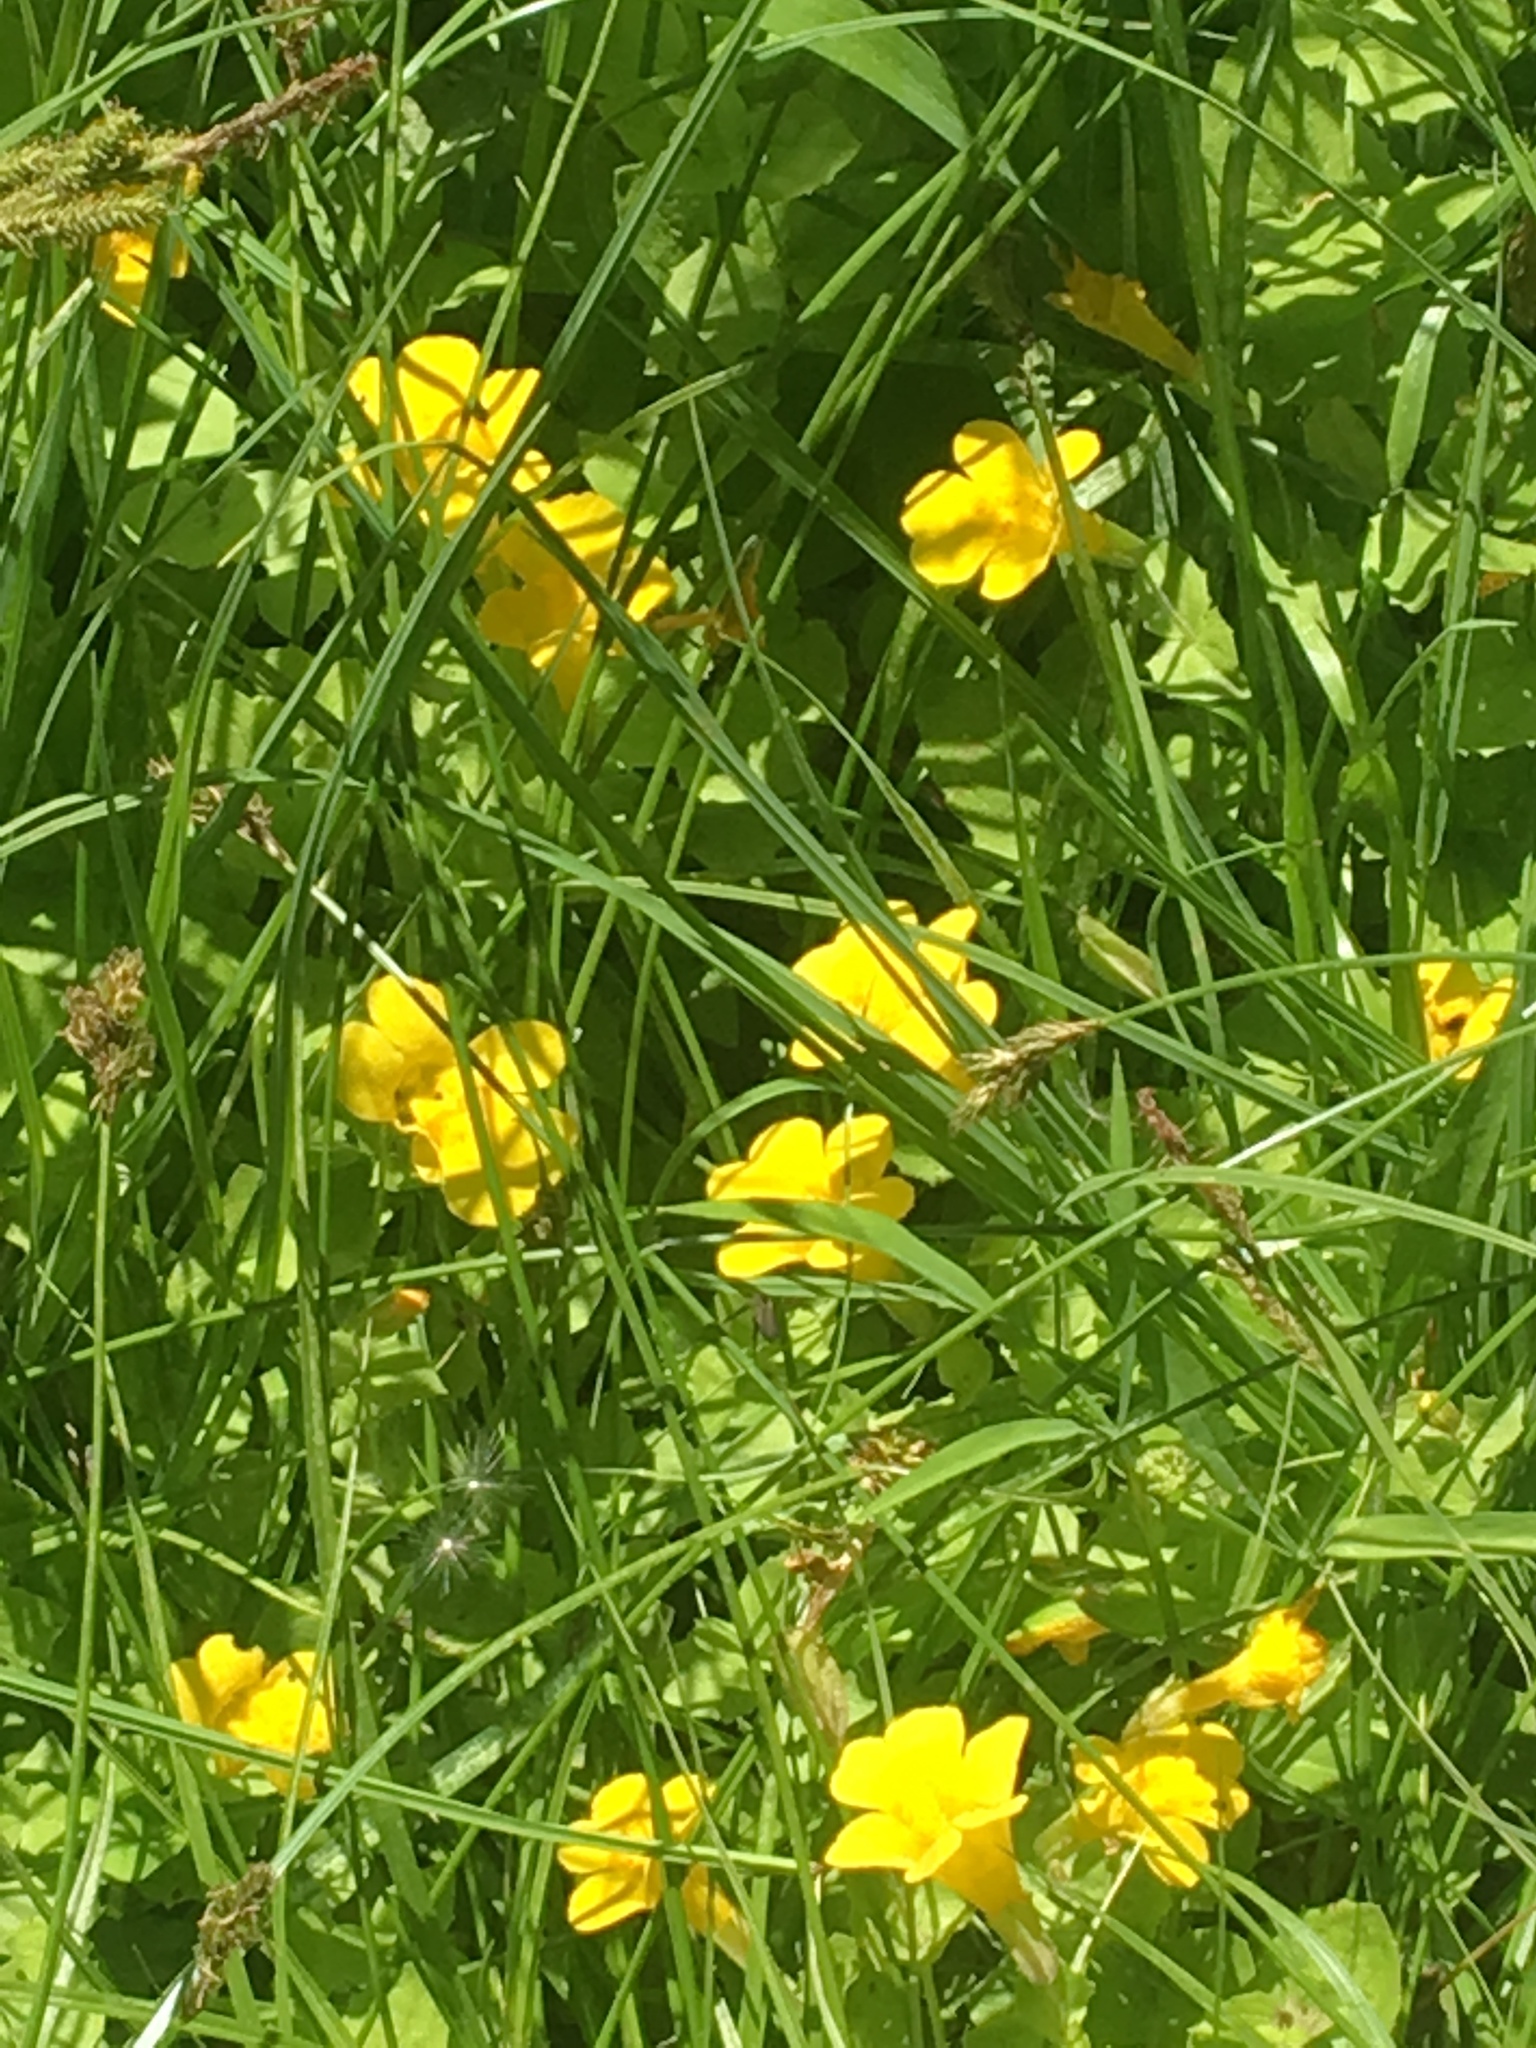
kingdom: Plantae
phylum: Tracheophyta
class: Magnoliopsida
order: Lamiales
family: Phrymaceae
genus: Erythranthe
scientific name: Erythranthe guttata
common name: Monkeyflower
